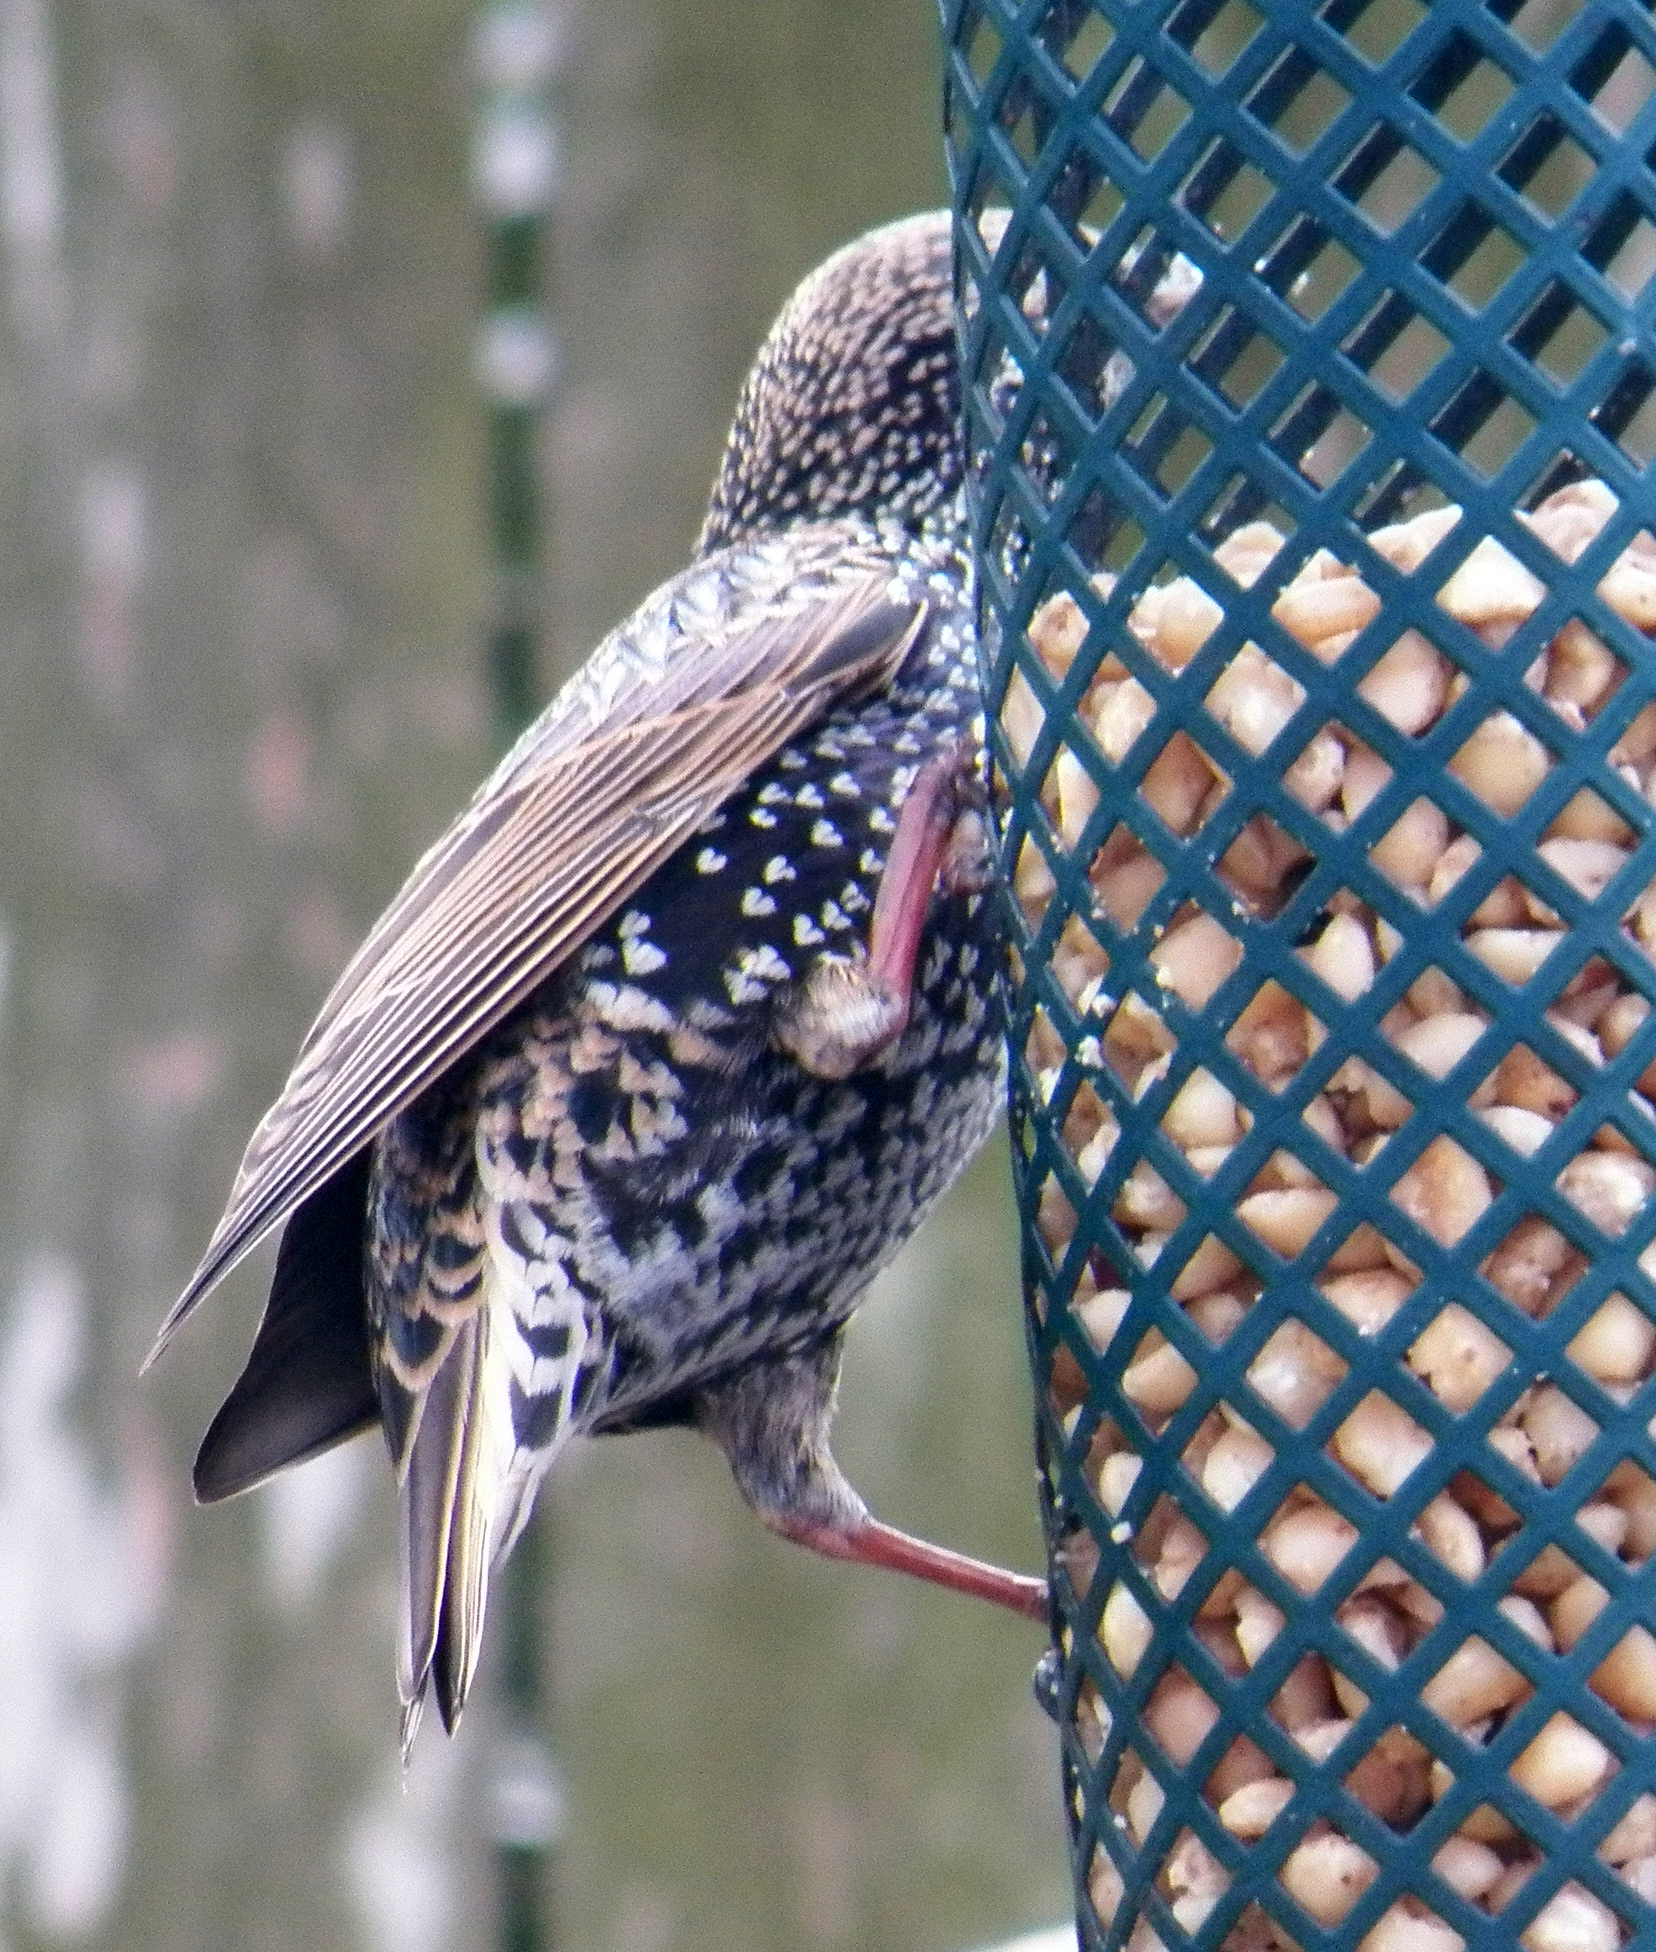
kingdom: Animalia
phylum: Chordata
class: Aves
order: Passeriformes
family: Sturnidae
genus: Sturnus
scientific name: Sturnus vulgaris
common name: Common starling
